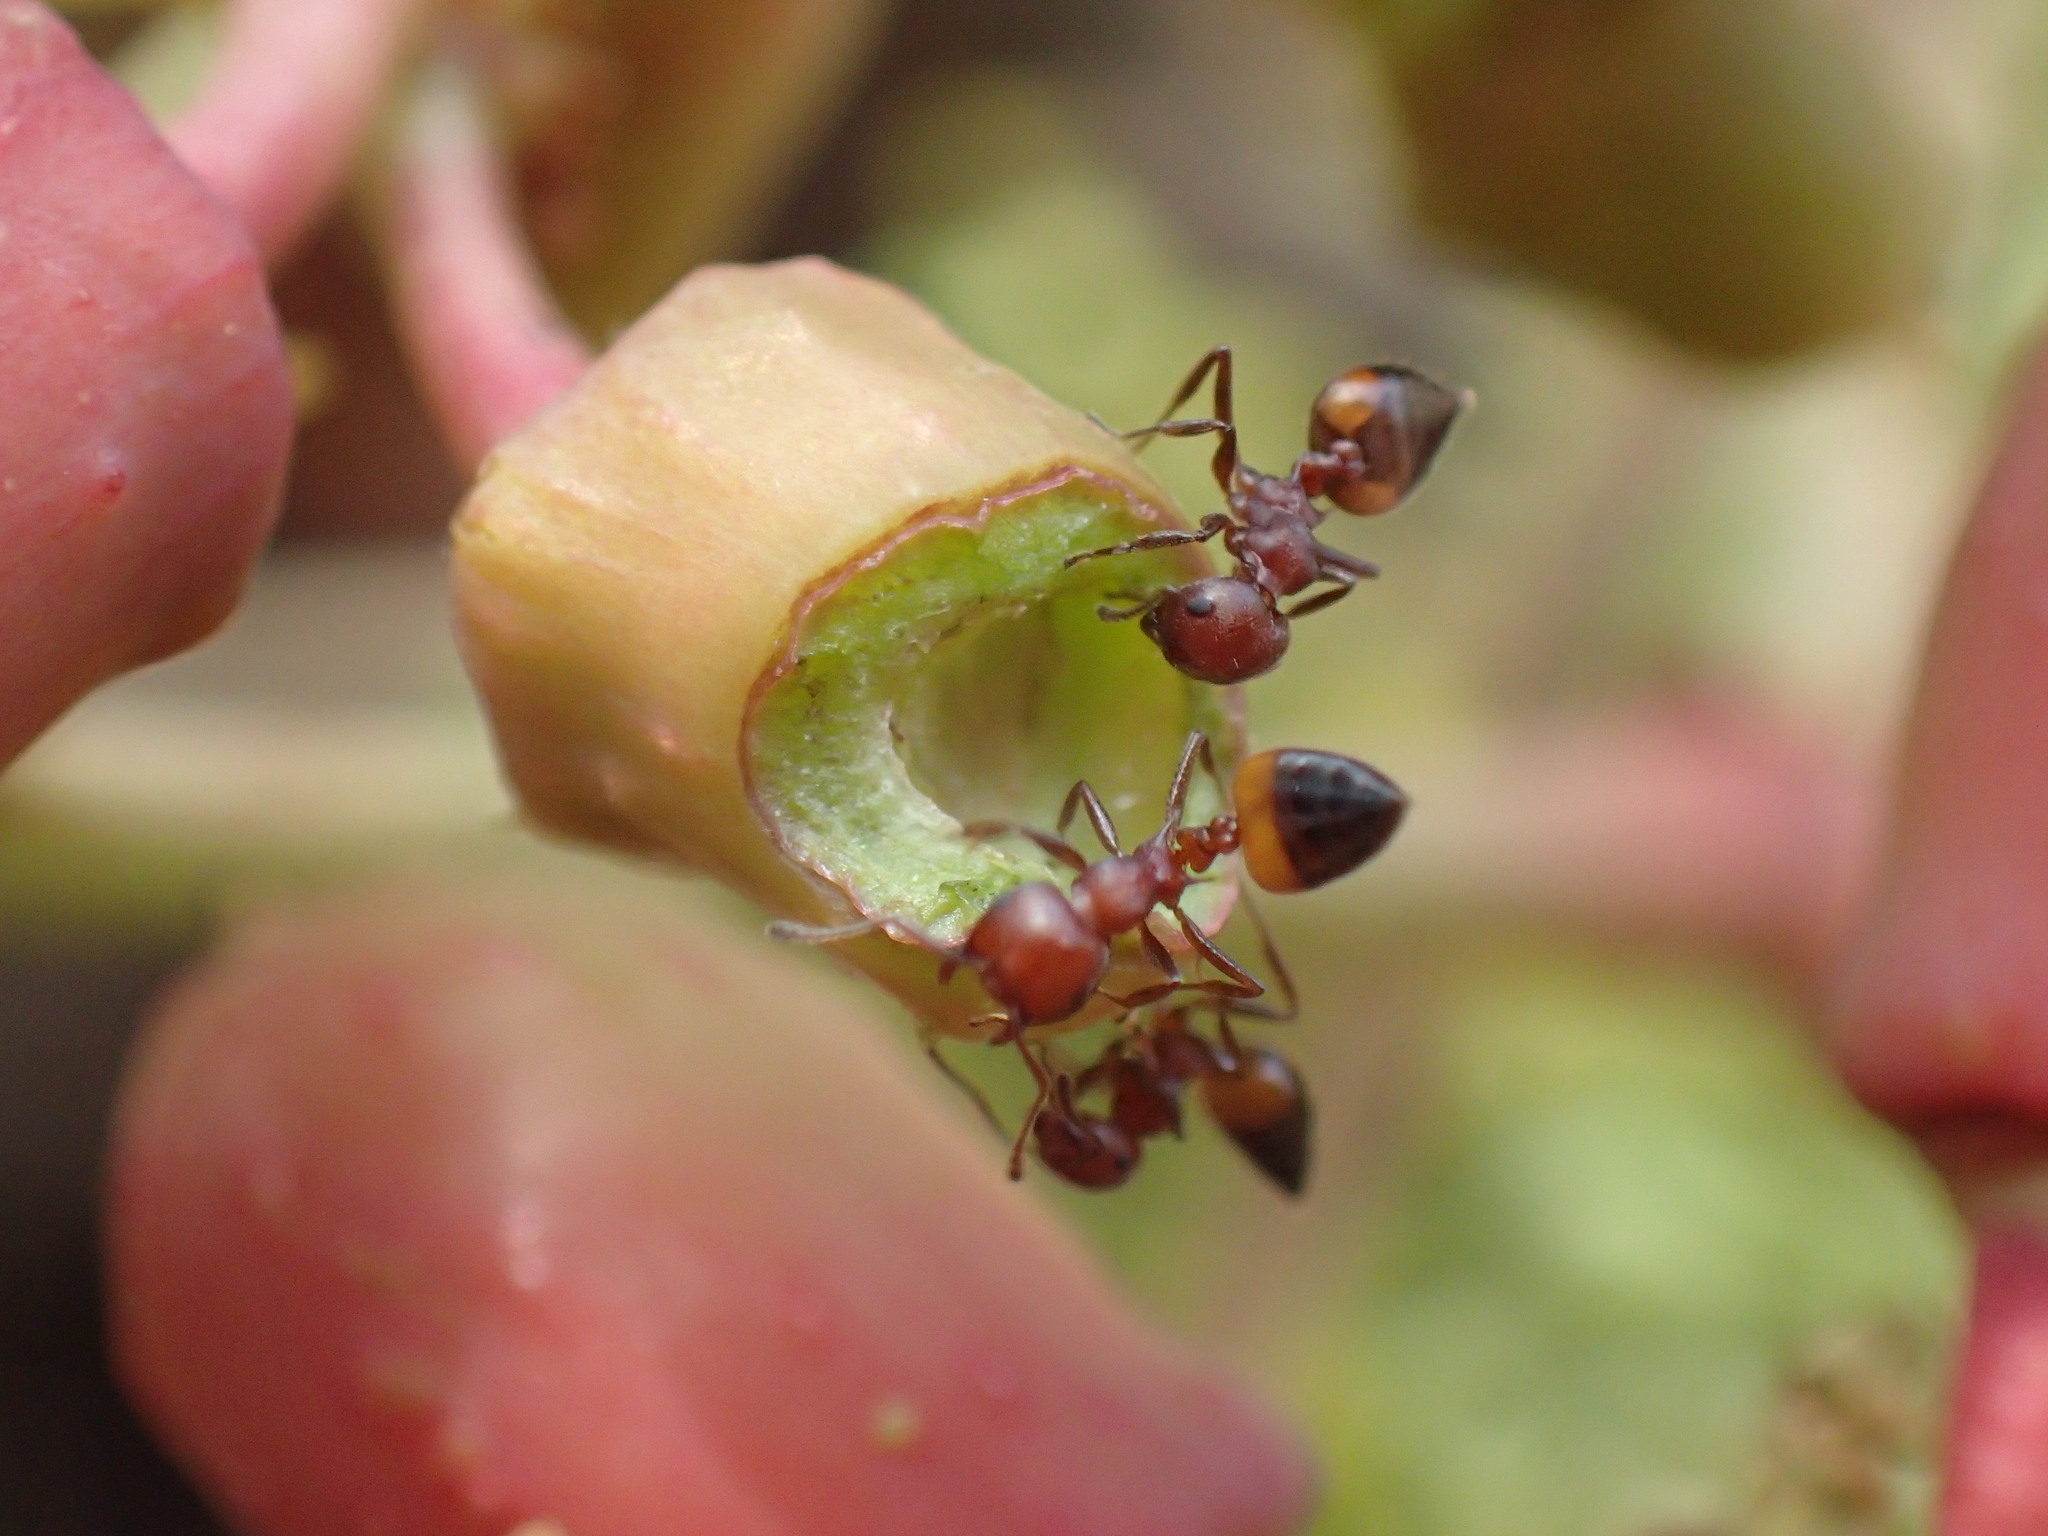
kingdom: Animalia
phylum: Arthropoda
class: Insecta
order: Hymenoptera
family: Formicidae
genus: Crematogaster
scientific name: Crematogaster castanea
